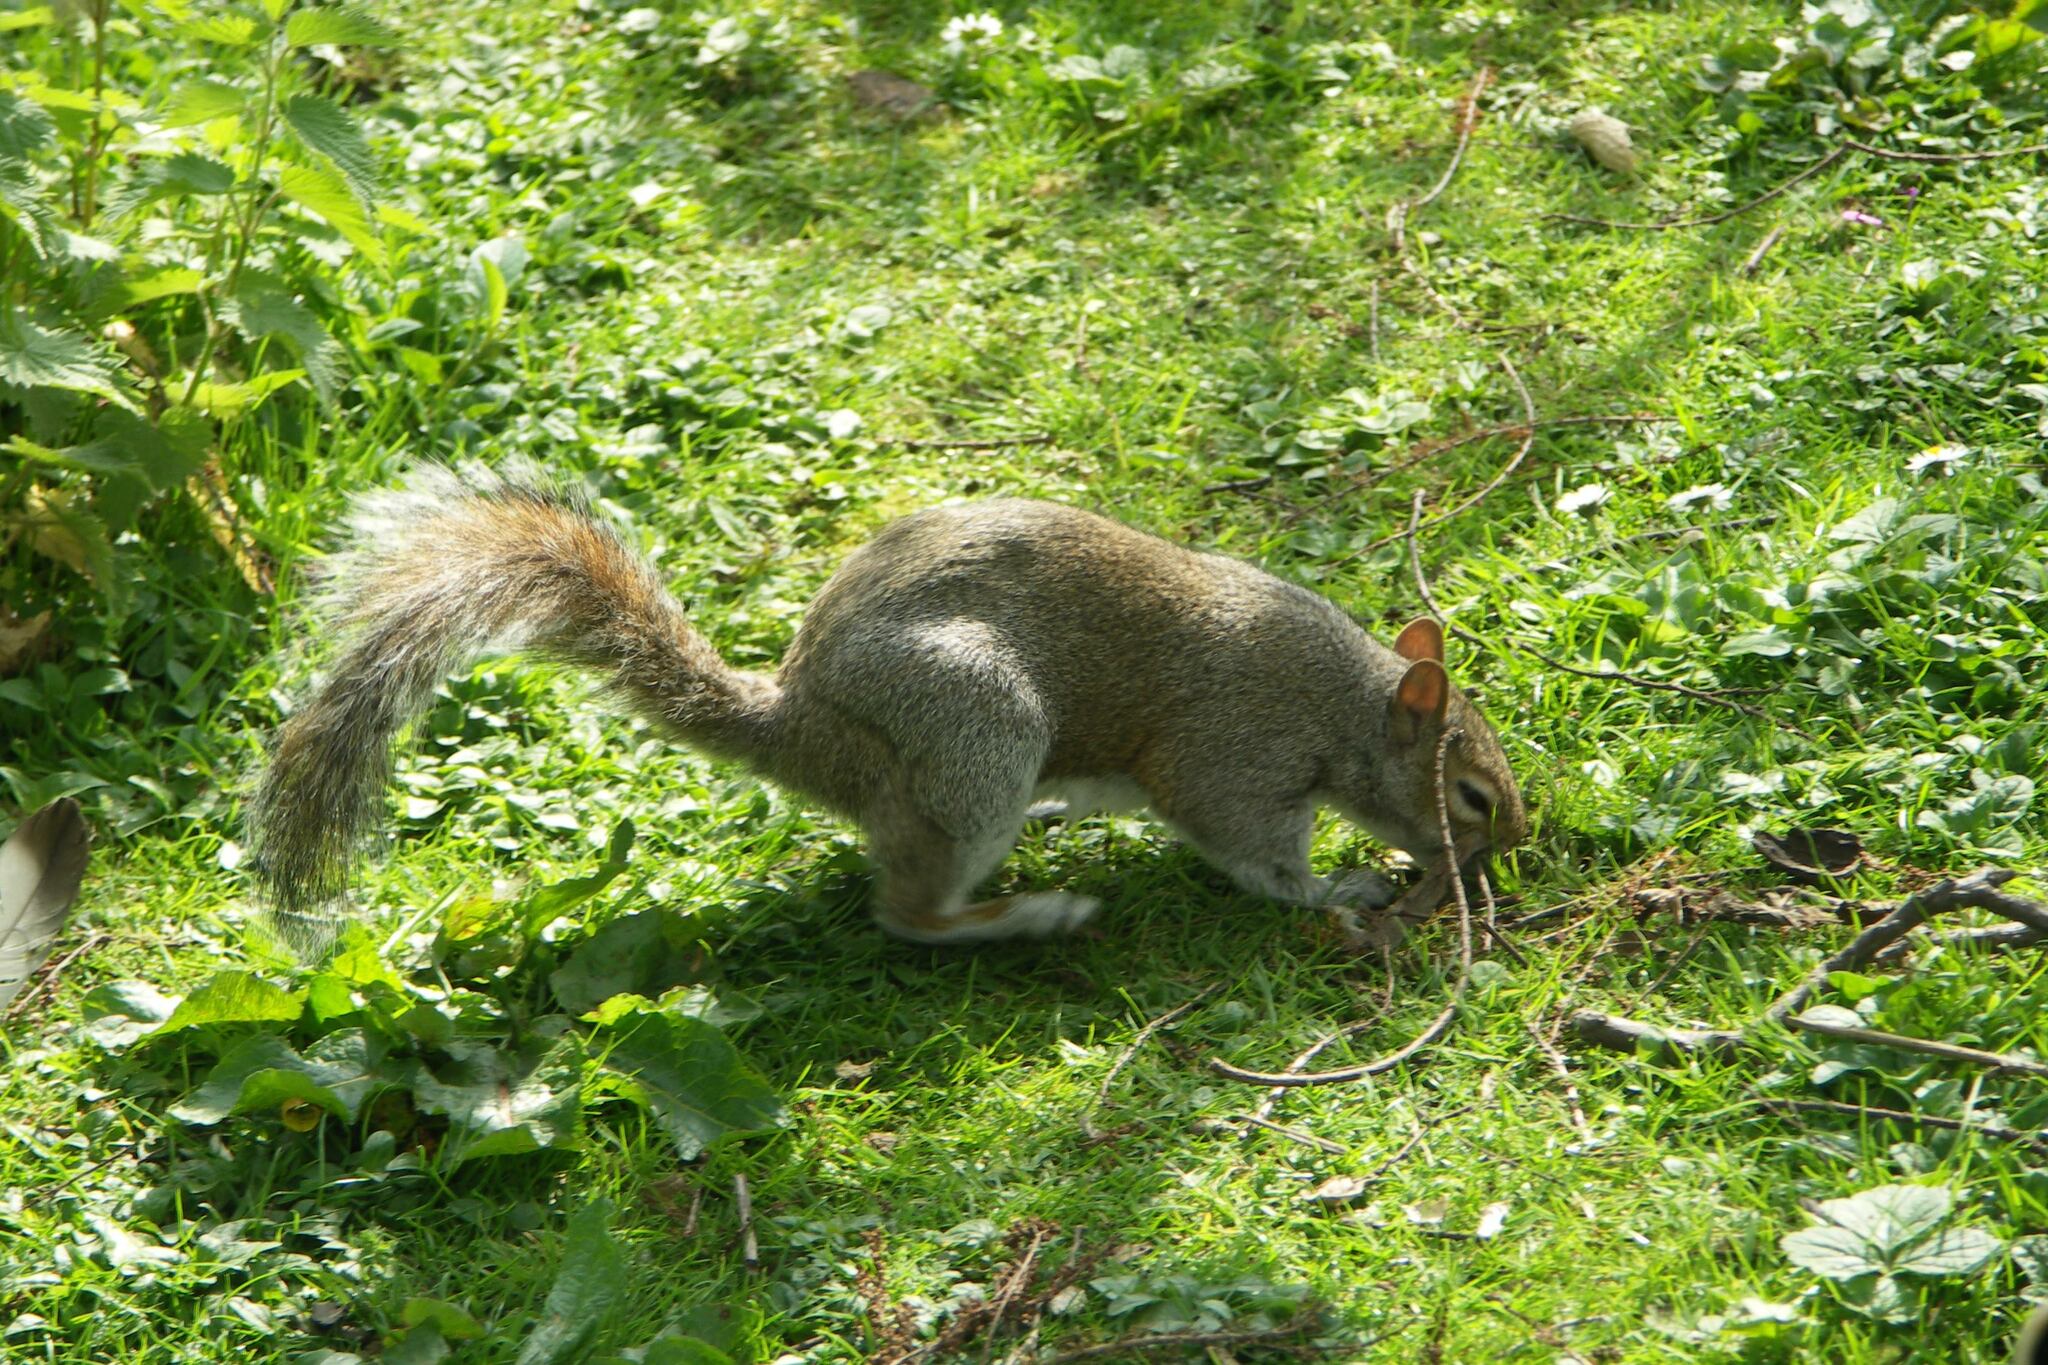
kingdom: Animalia
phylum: Chordata
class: Mammalia
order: Rodentia
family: Sciuridae
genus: Sciurus
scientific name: Sciurus carolinensis
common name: Eastern gray squirrel
